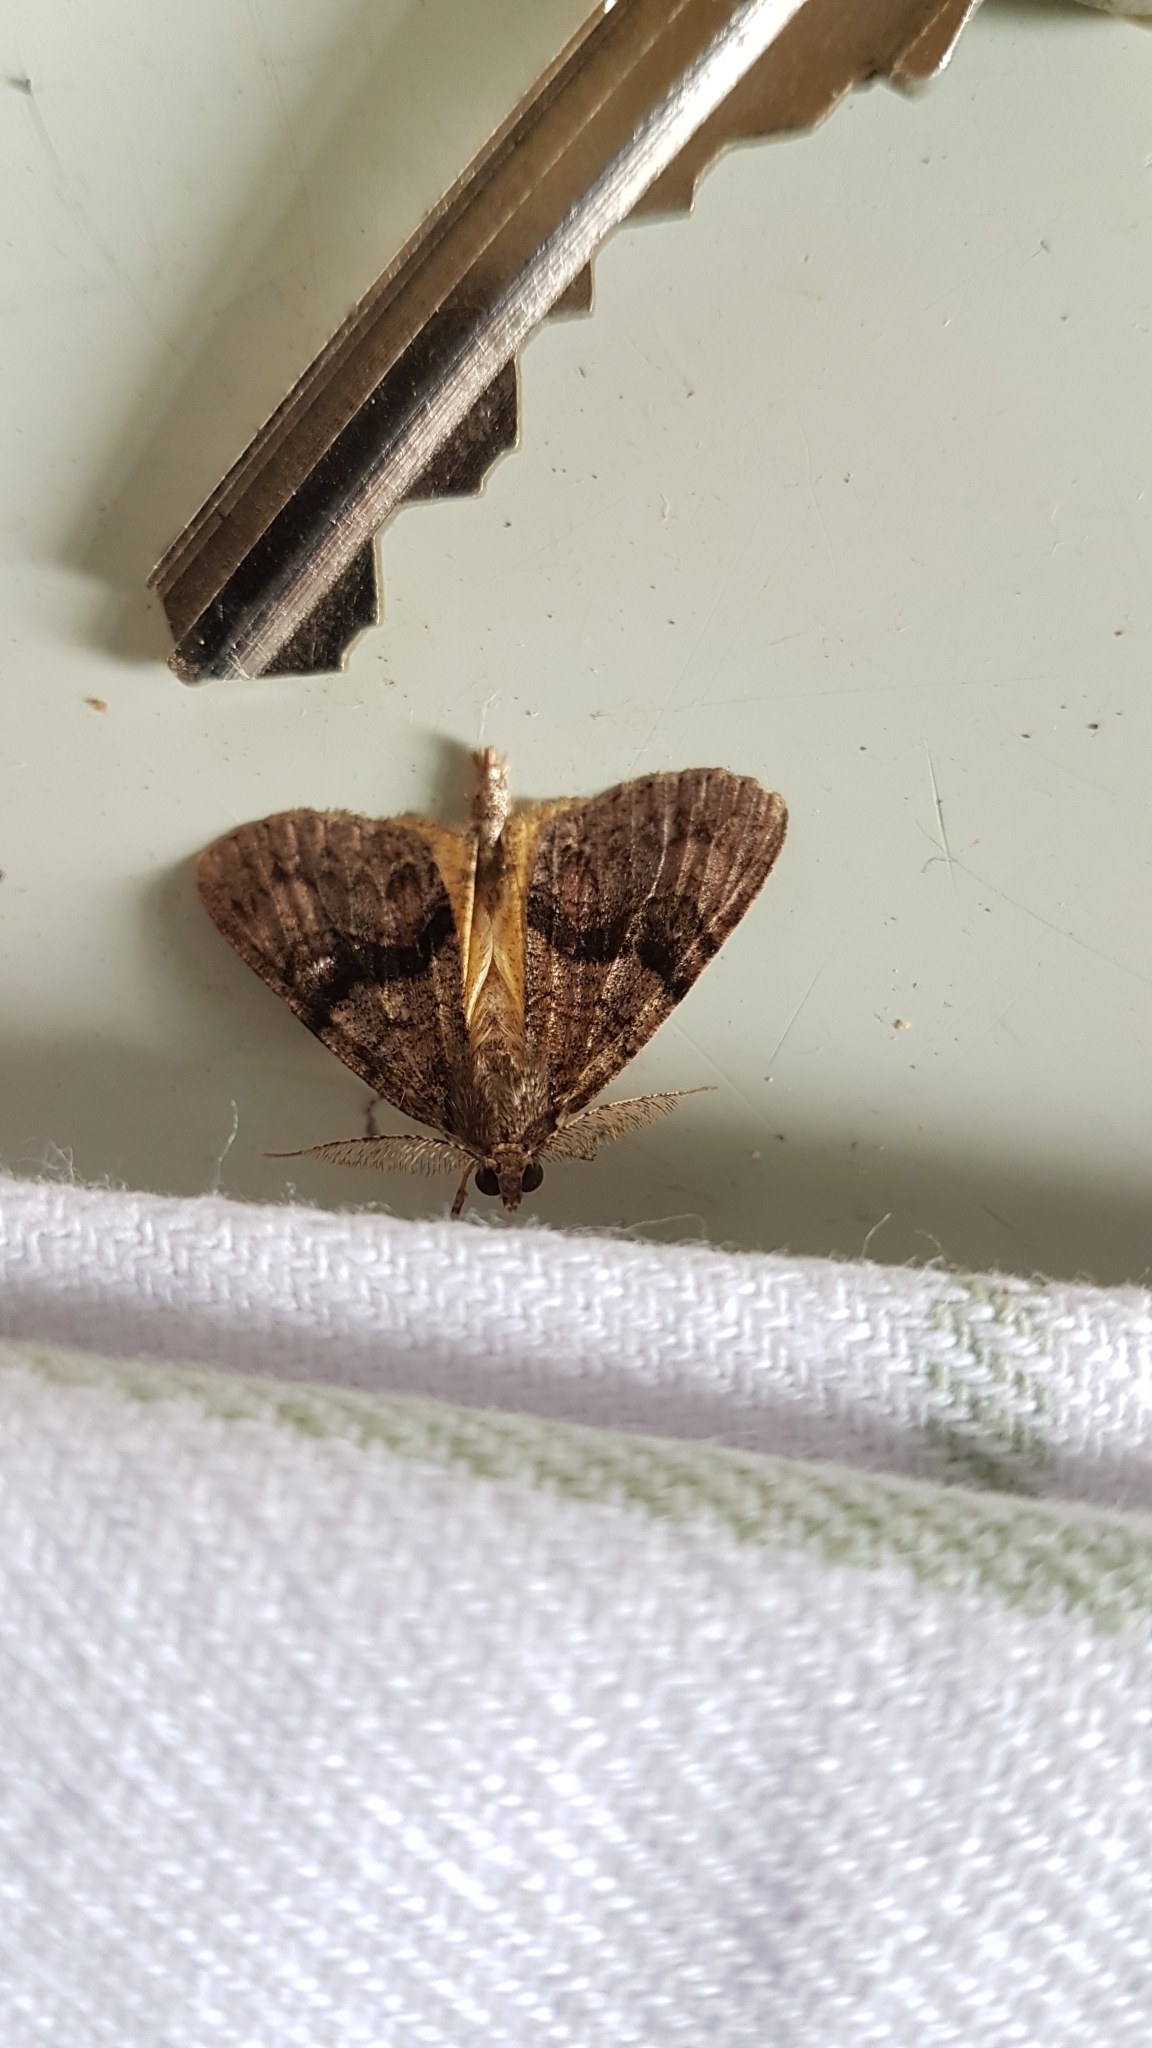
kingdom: Animalia
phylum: Arthropoda
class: Insecta
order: Lepidoptera
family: Geometridae
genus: Pseudocoremia
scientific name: Pseudocoremia suavis
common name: Common forest looper
